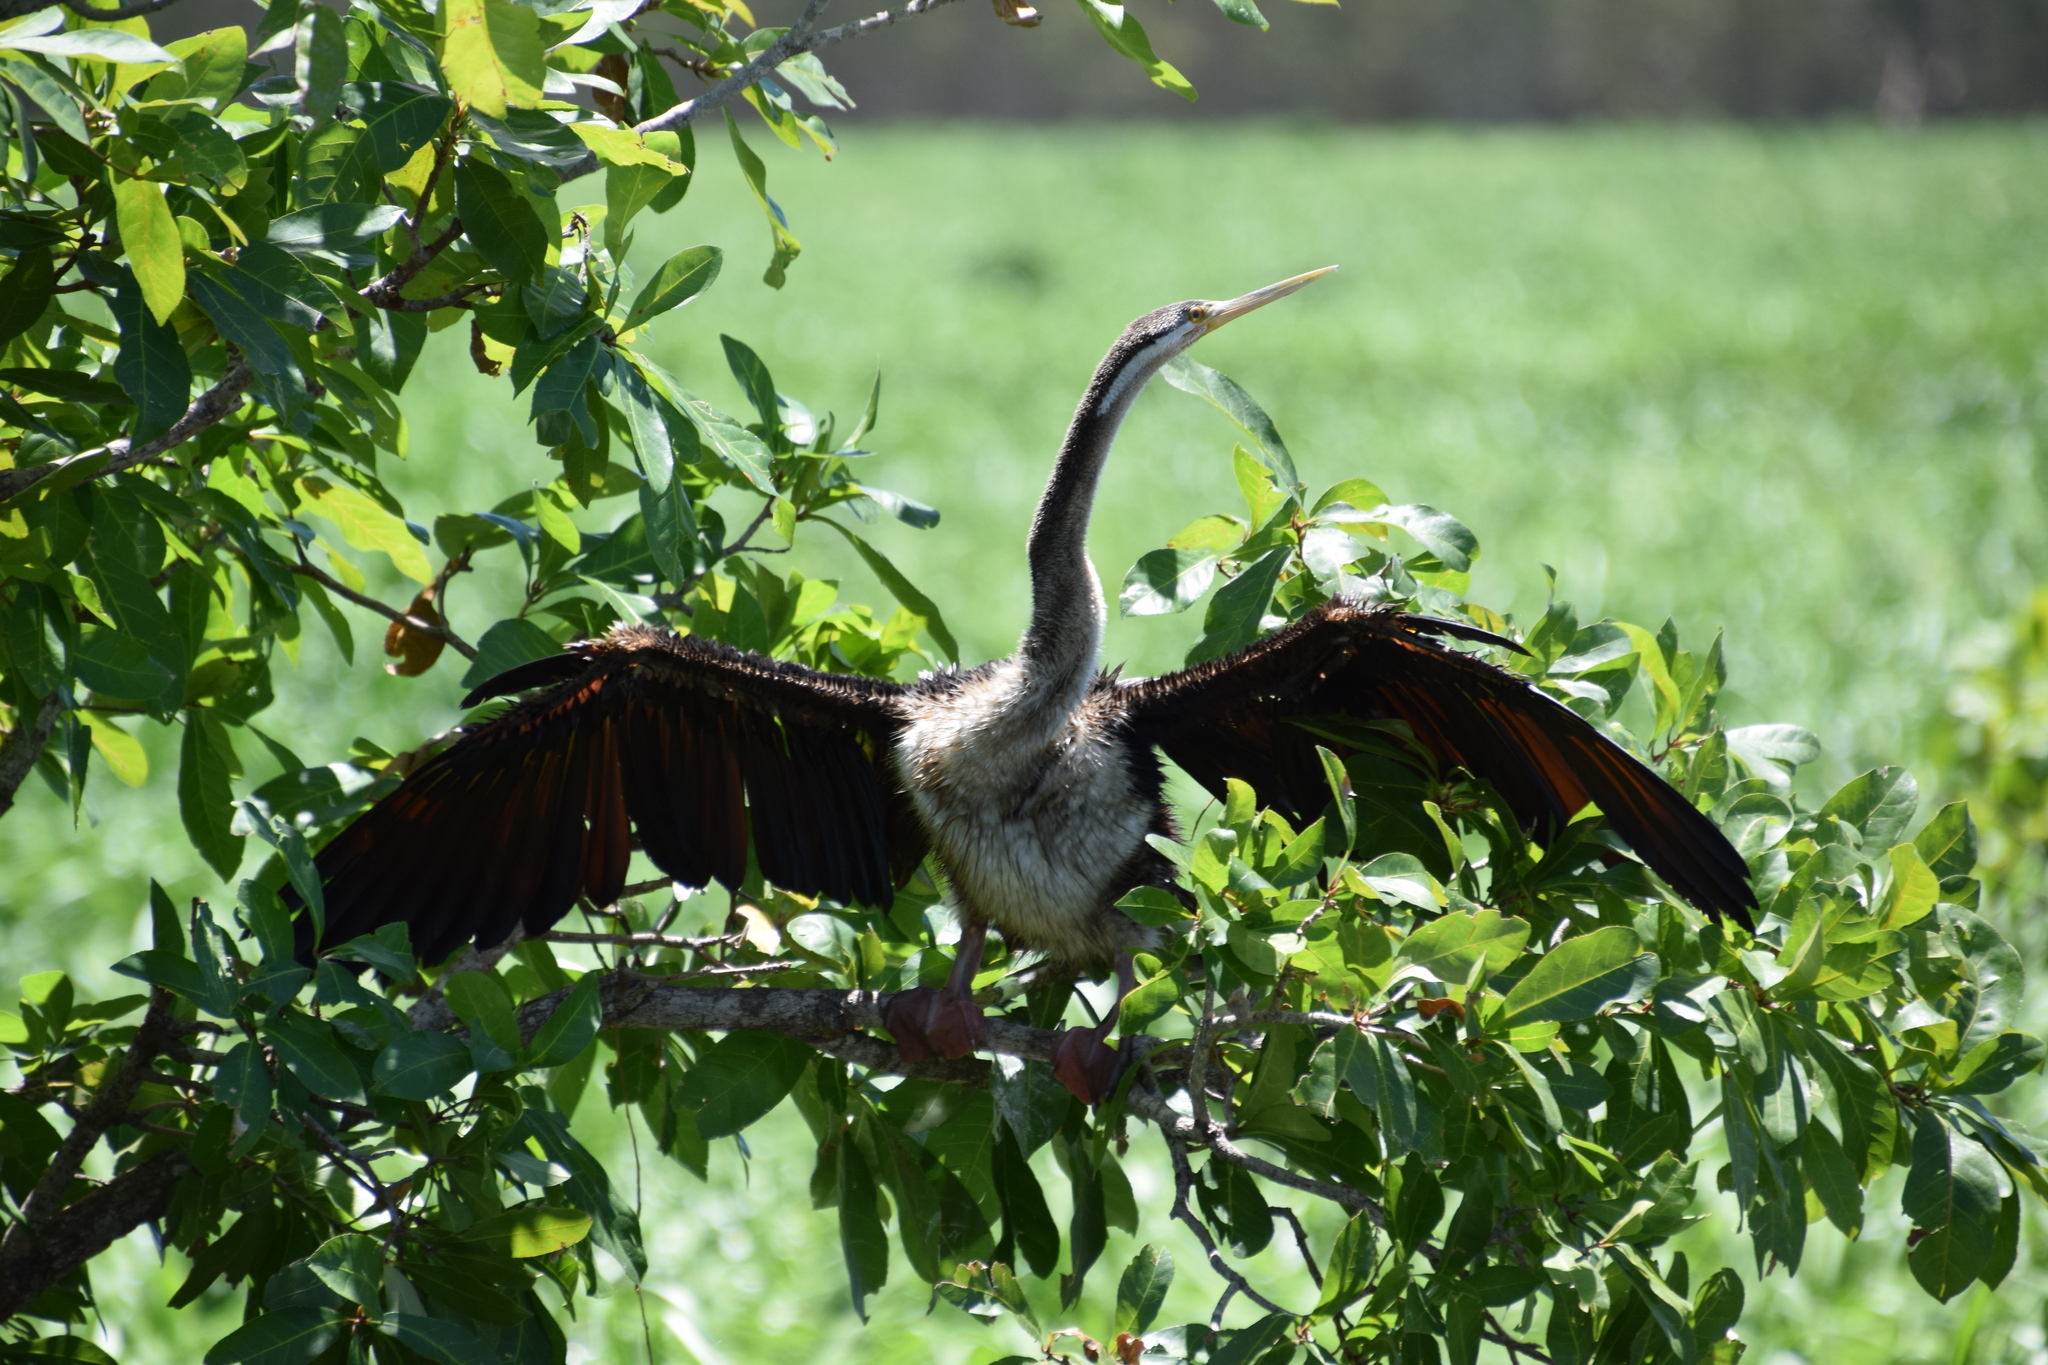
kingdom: Animalia
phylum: Chordata
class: Aves
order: Suliformes
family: Anhingidae
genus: Anhinga
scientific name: Anhinga novaehollandiae
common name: Australasian darter
